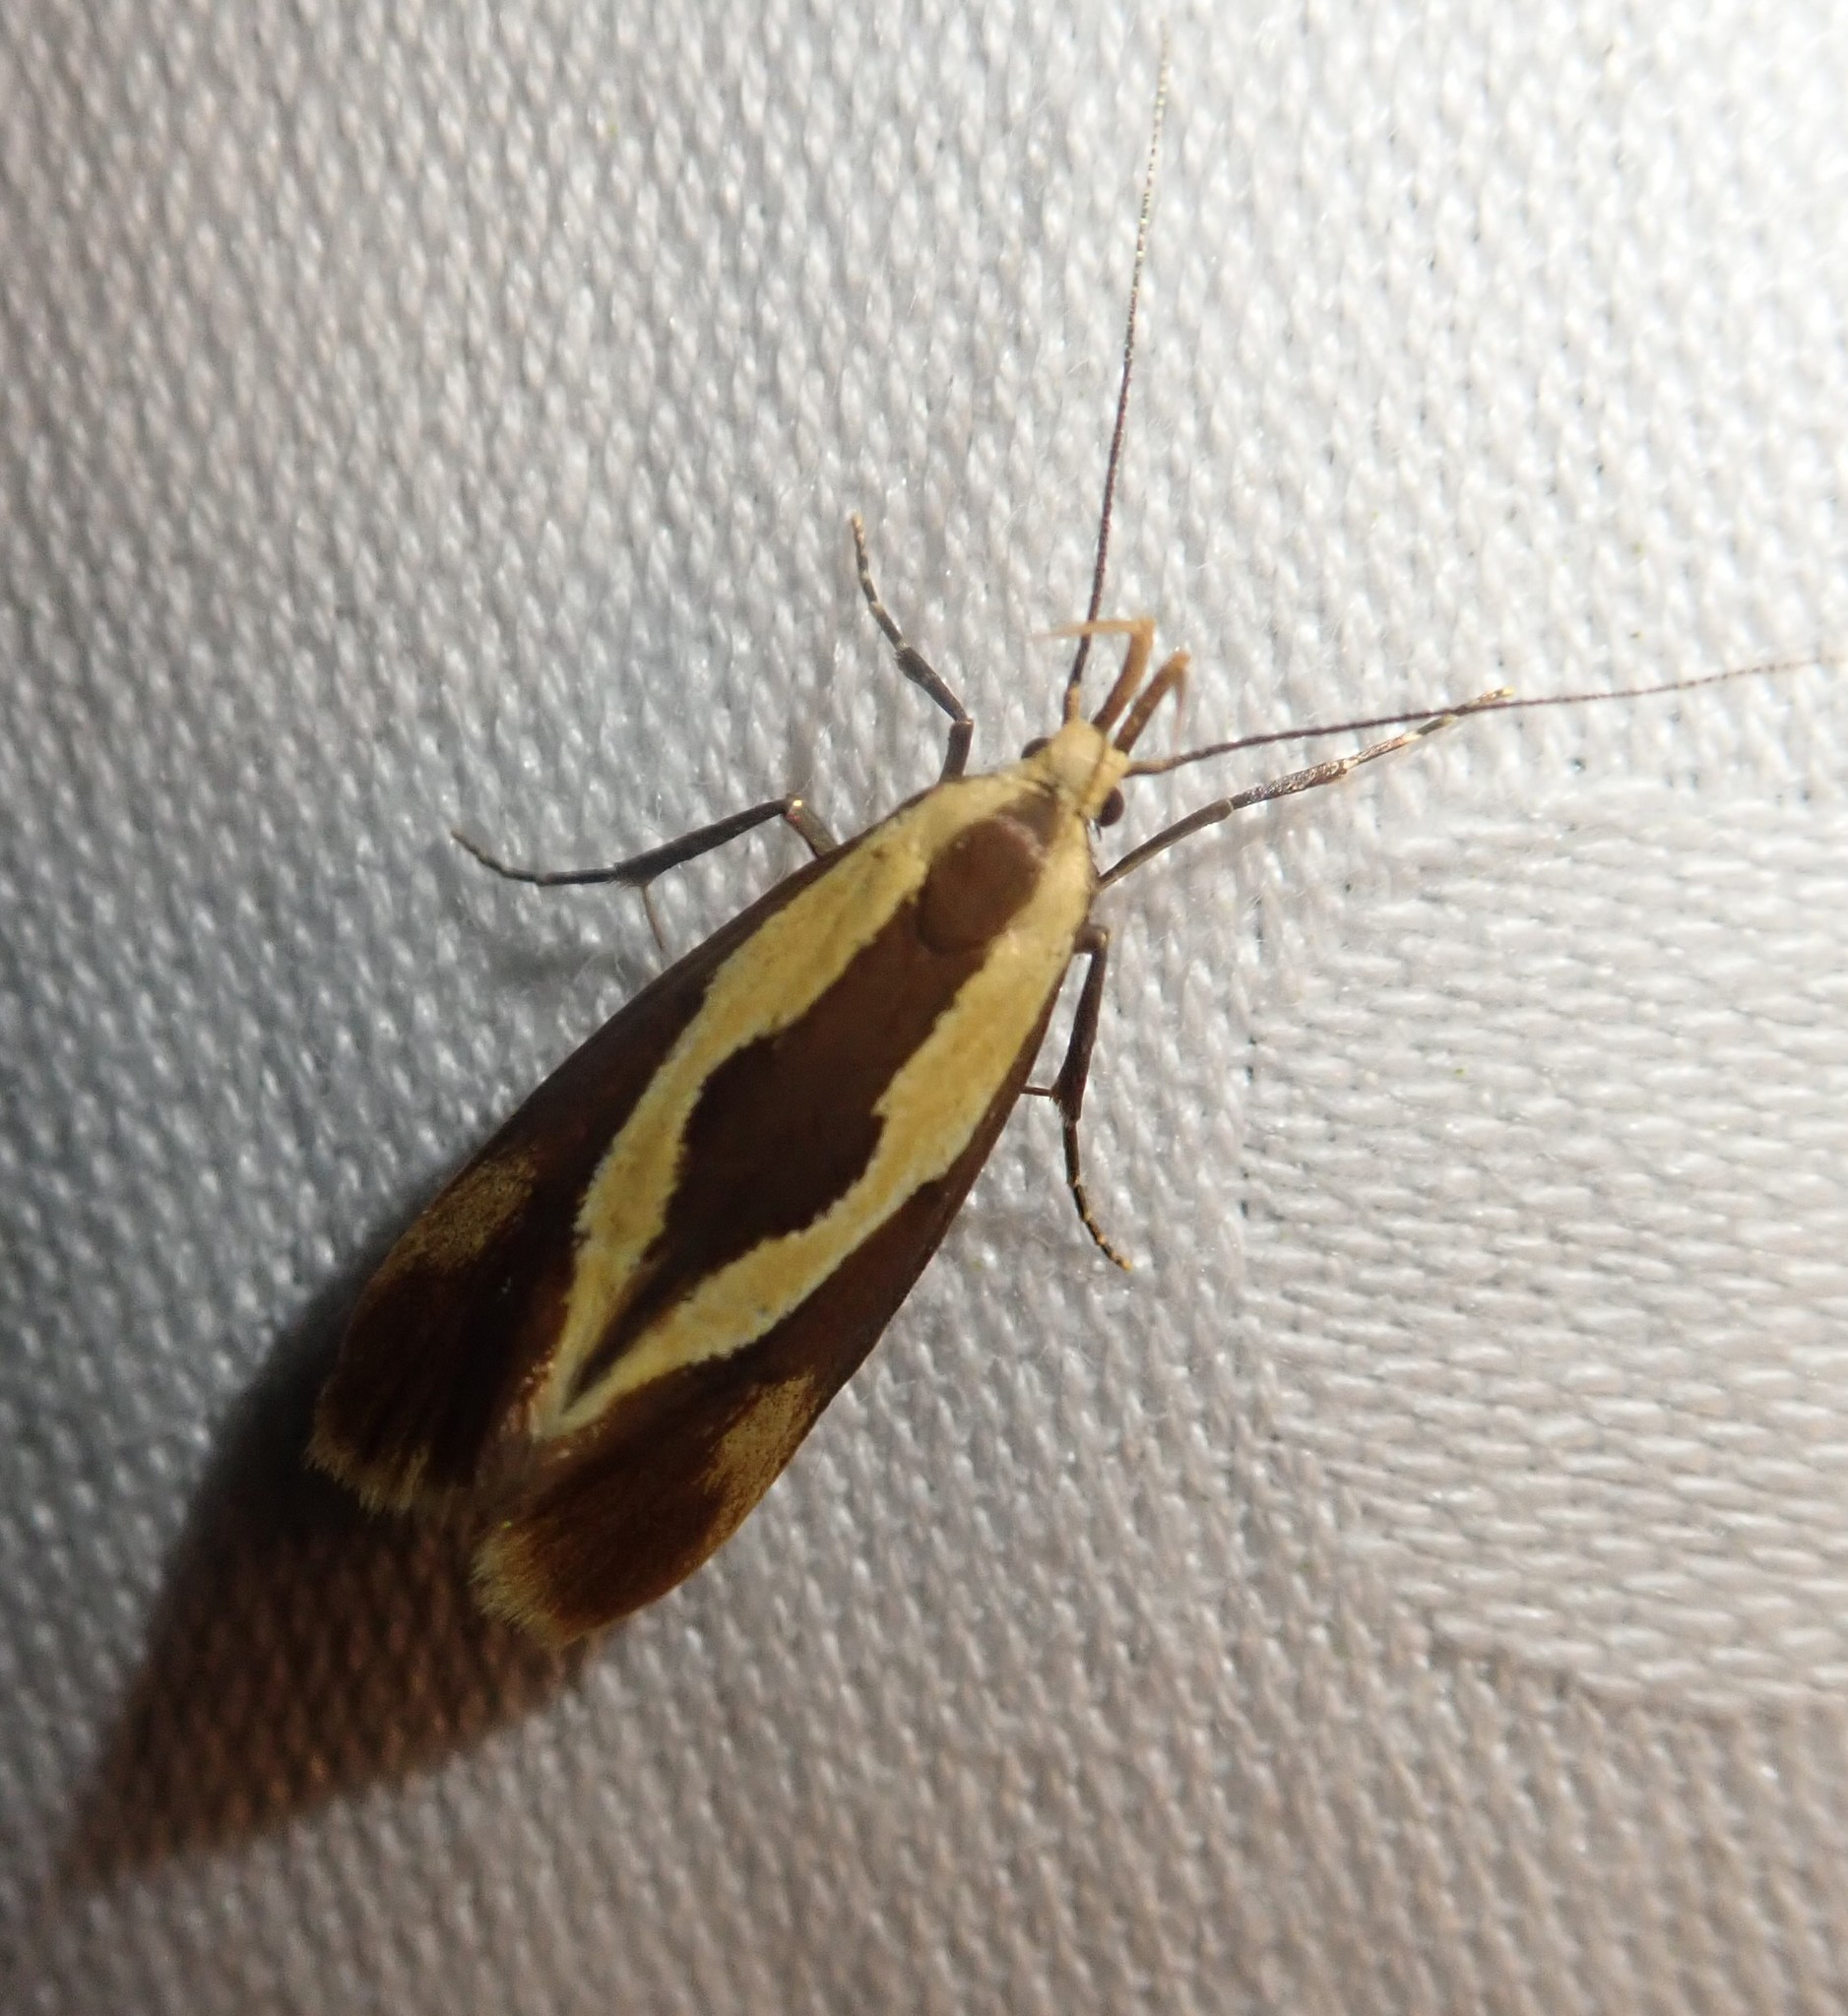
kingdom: Animalia
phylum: Arthropoda
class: Insecta
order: Lepidoptera
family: Oecophoridae
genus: Harpella
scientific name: Harpella forficella
